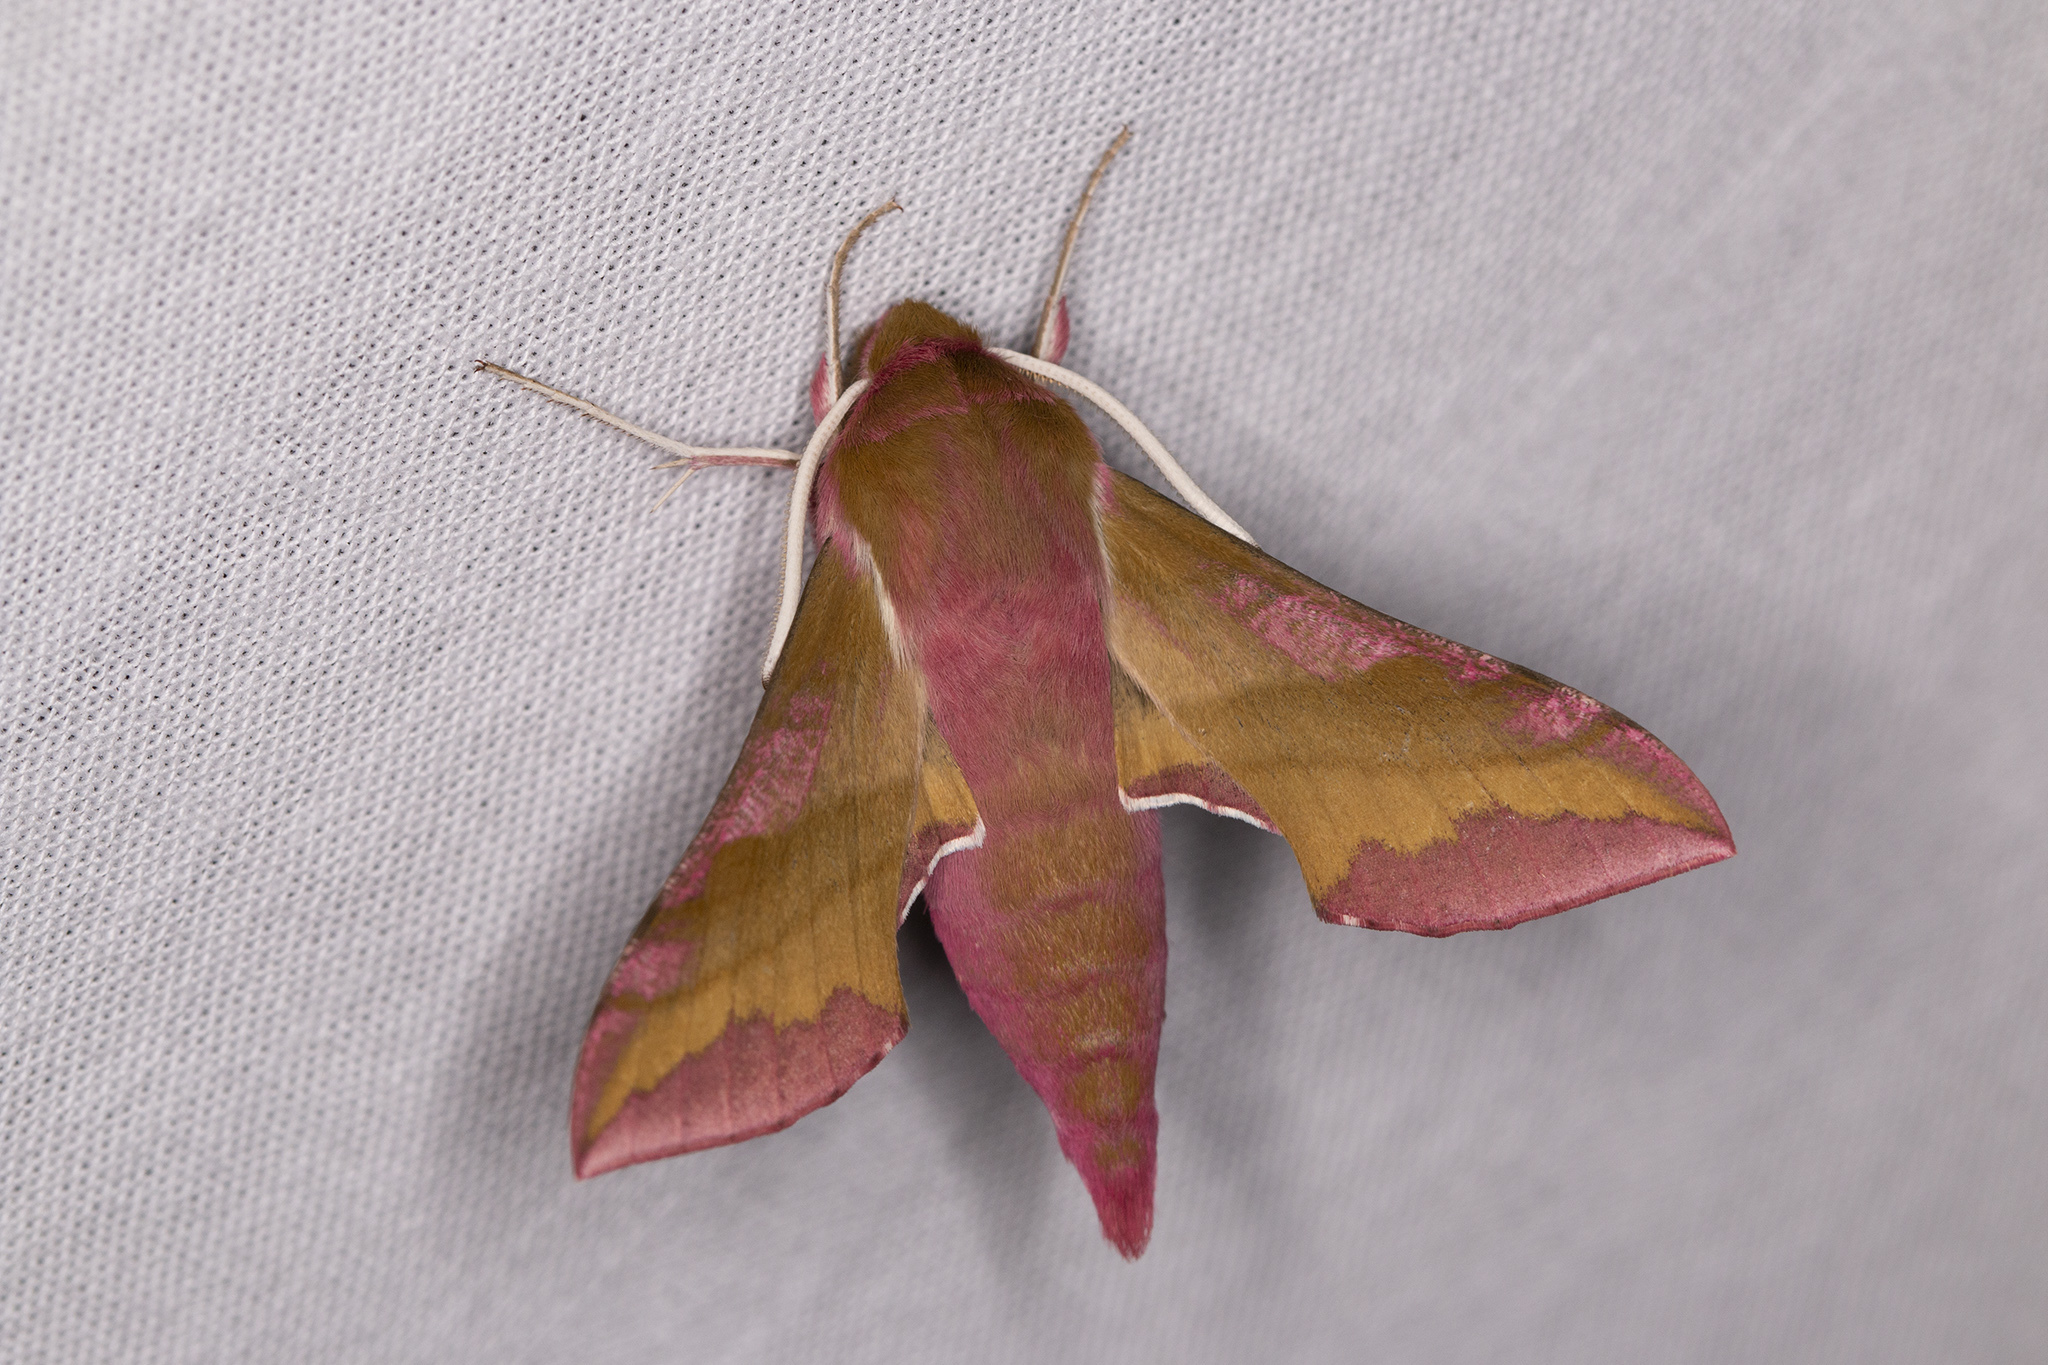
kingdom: Animalia
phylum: Arthropoda
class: Insecta
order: Lepidoptera
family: Sphingidae
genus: Deilephila
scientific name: Deilephila porcellus
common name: Small elephant hawk-moth
